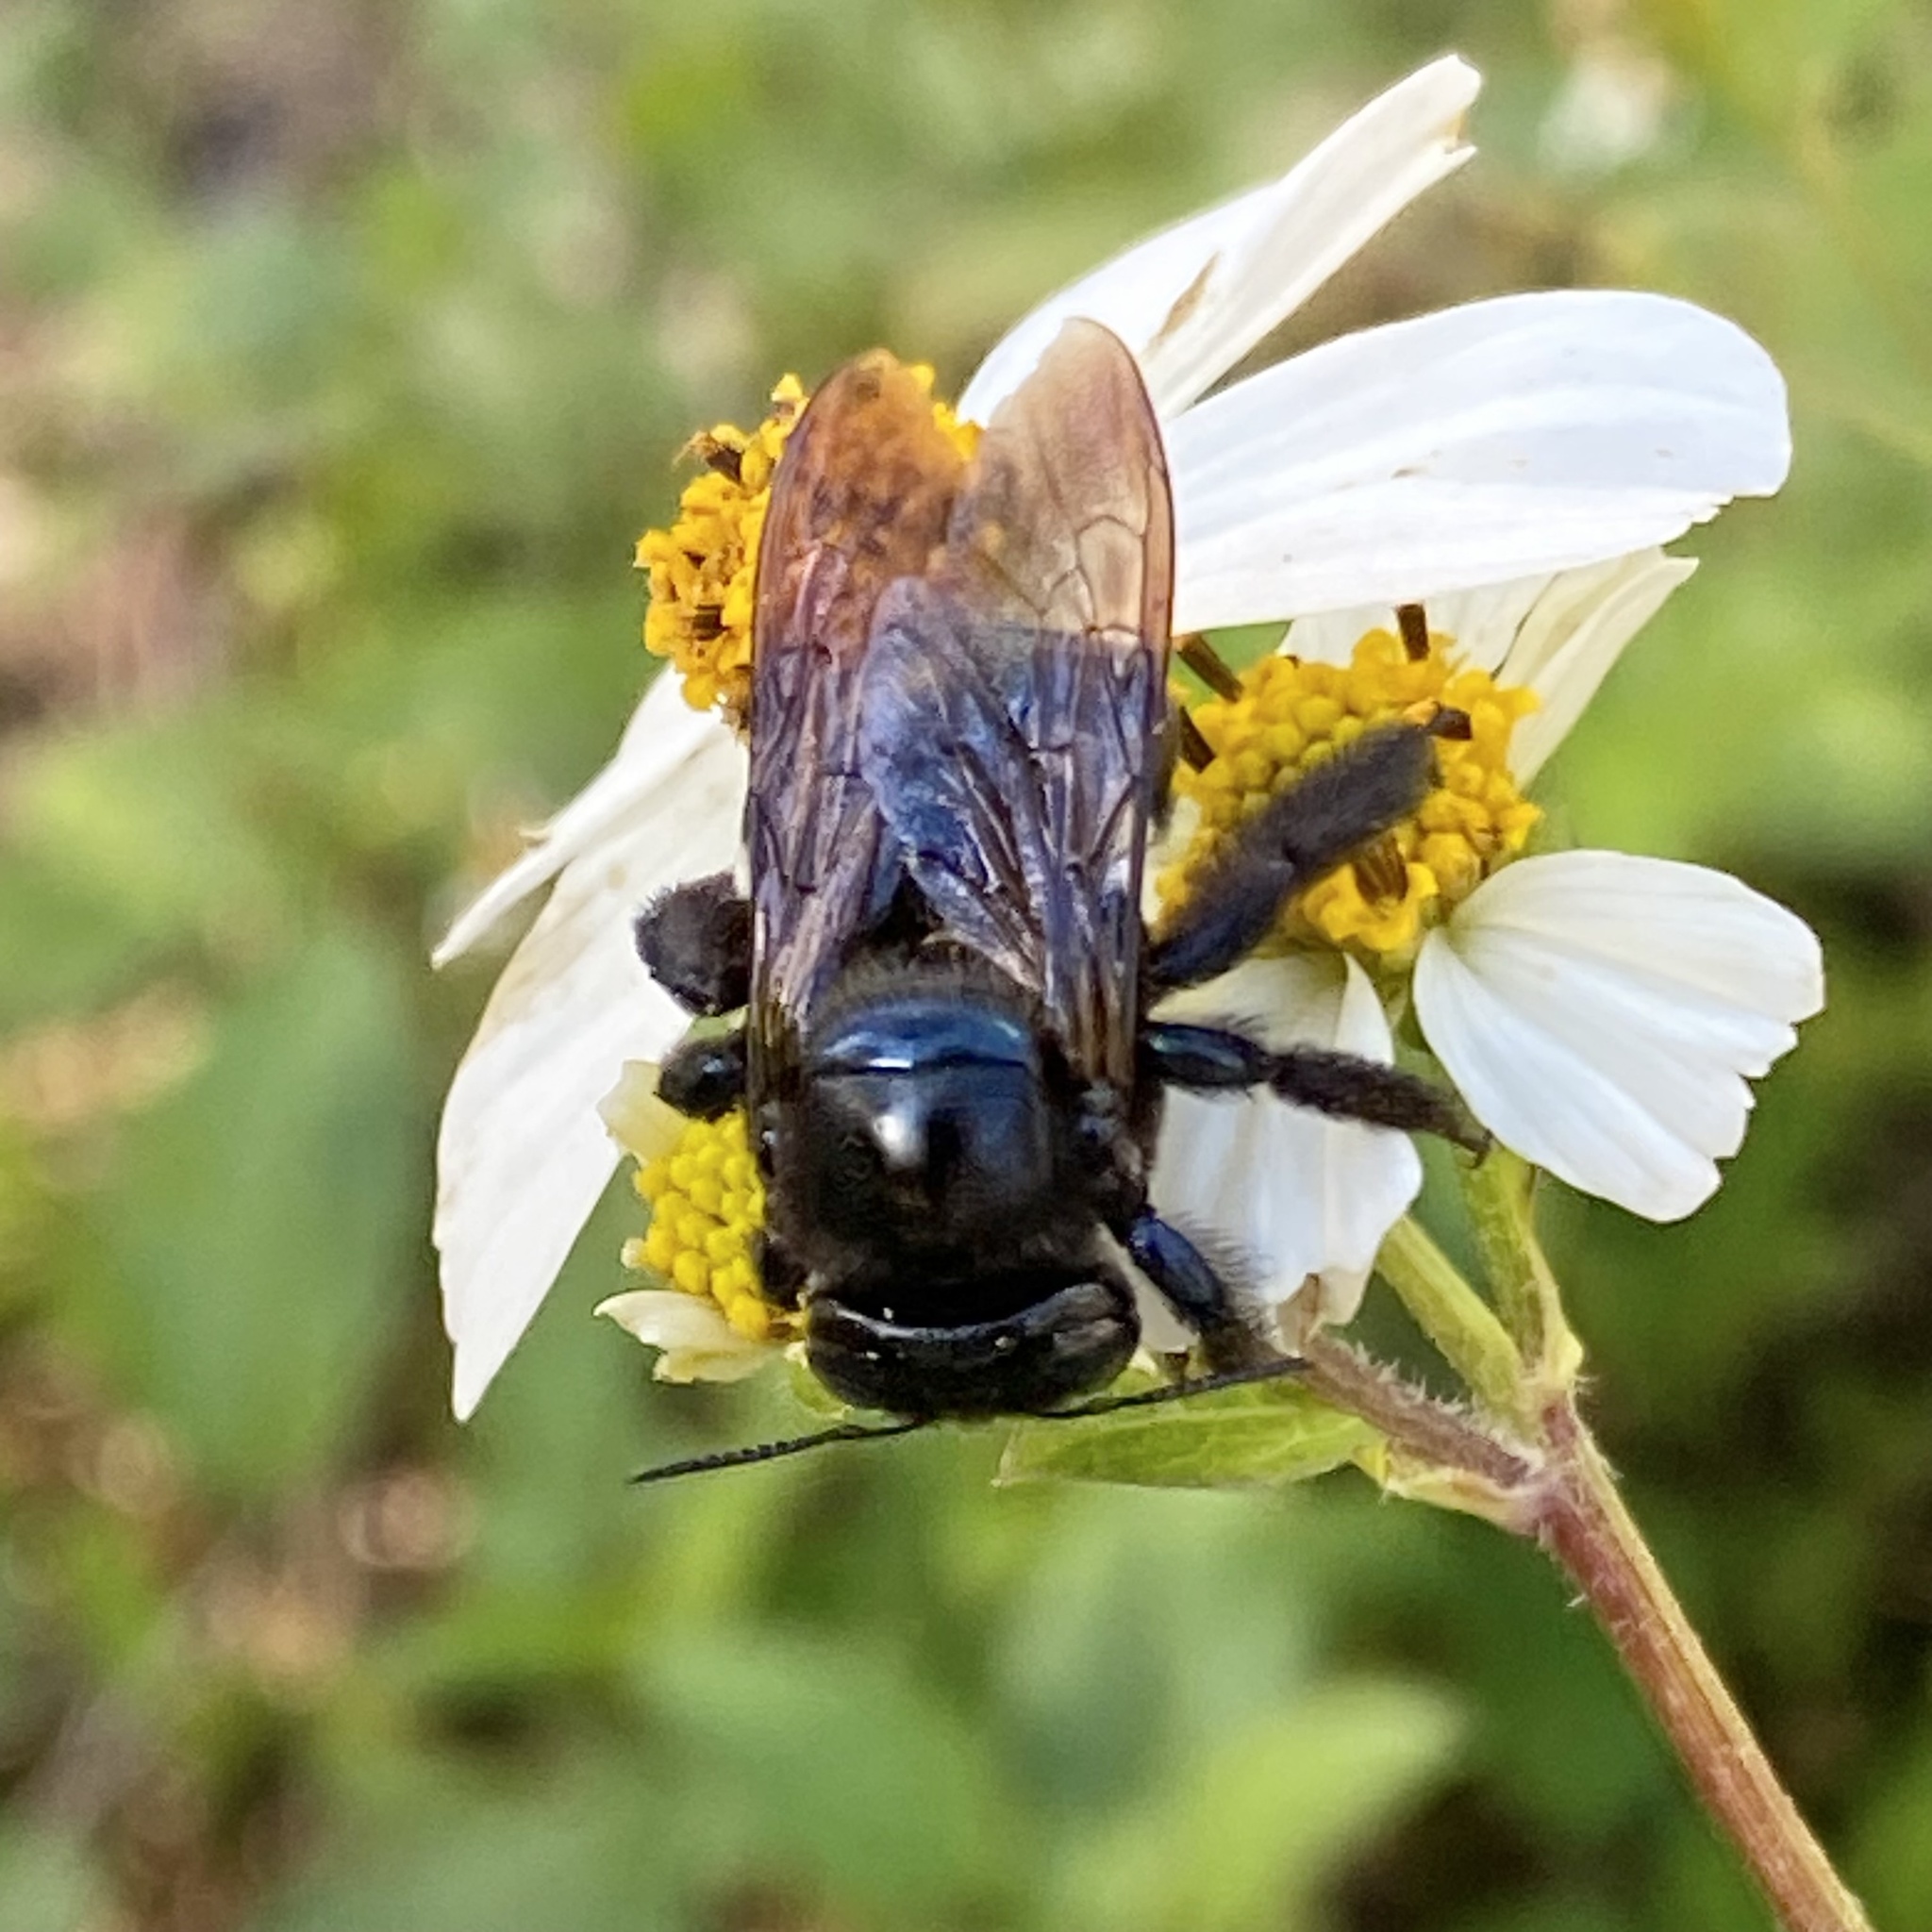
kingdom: Animalia
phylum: Arthropoda
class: Insecta
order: Hymenoptera
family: Apidae
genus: Xylocopa
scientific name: Xylocopa micans
